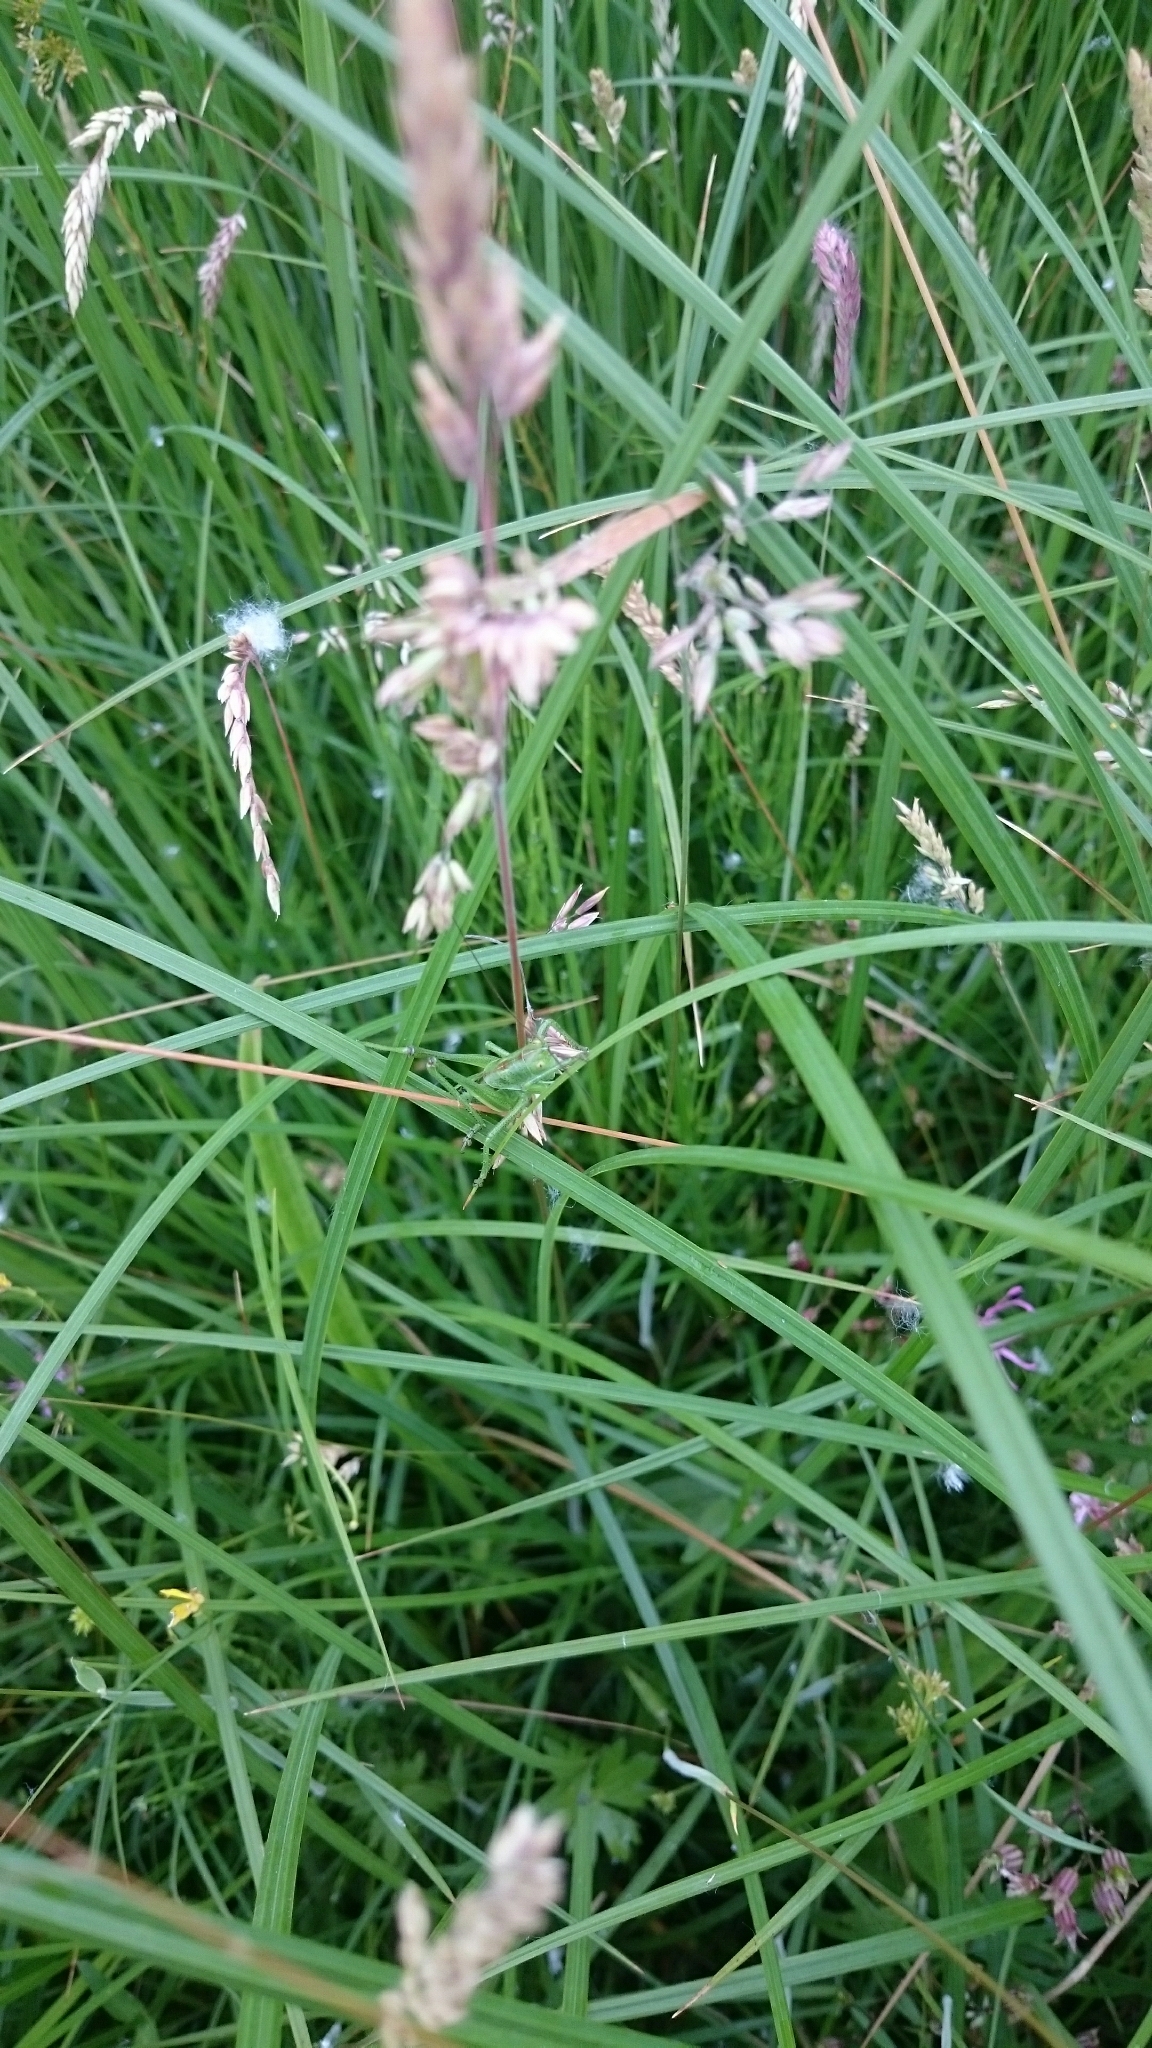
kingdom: Animalia
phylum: Arthropoda
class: Insecta
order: Orthoptera
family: Tettigoniidae
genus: Tettigonia
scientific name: Tettigonia viridissima
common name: Great green bush-cricket
